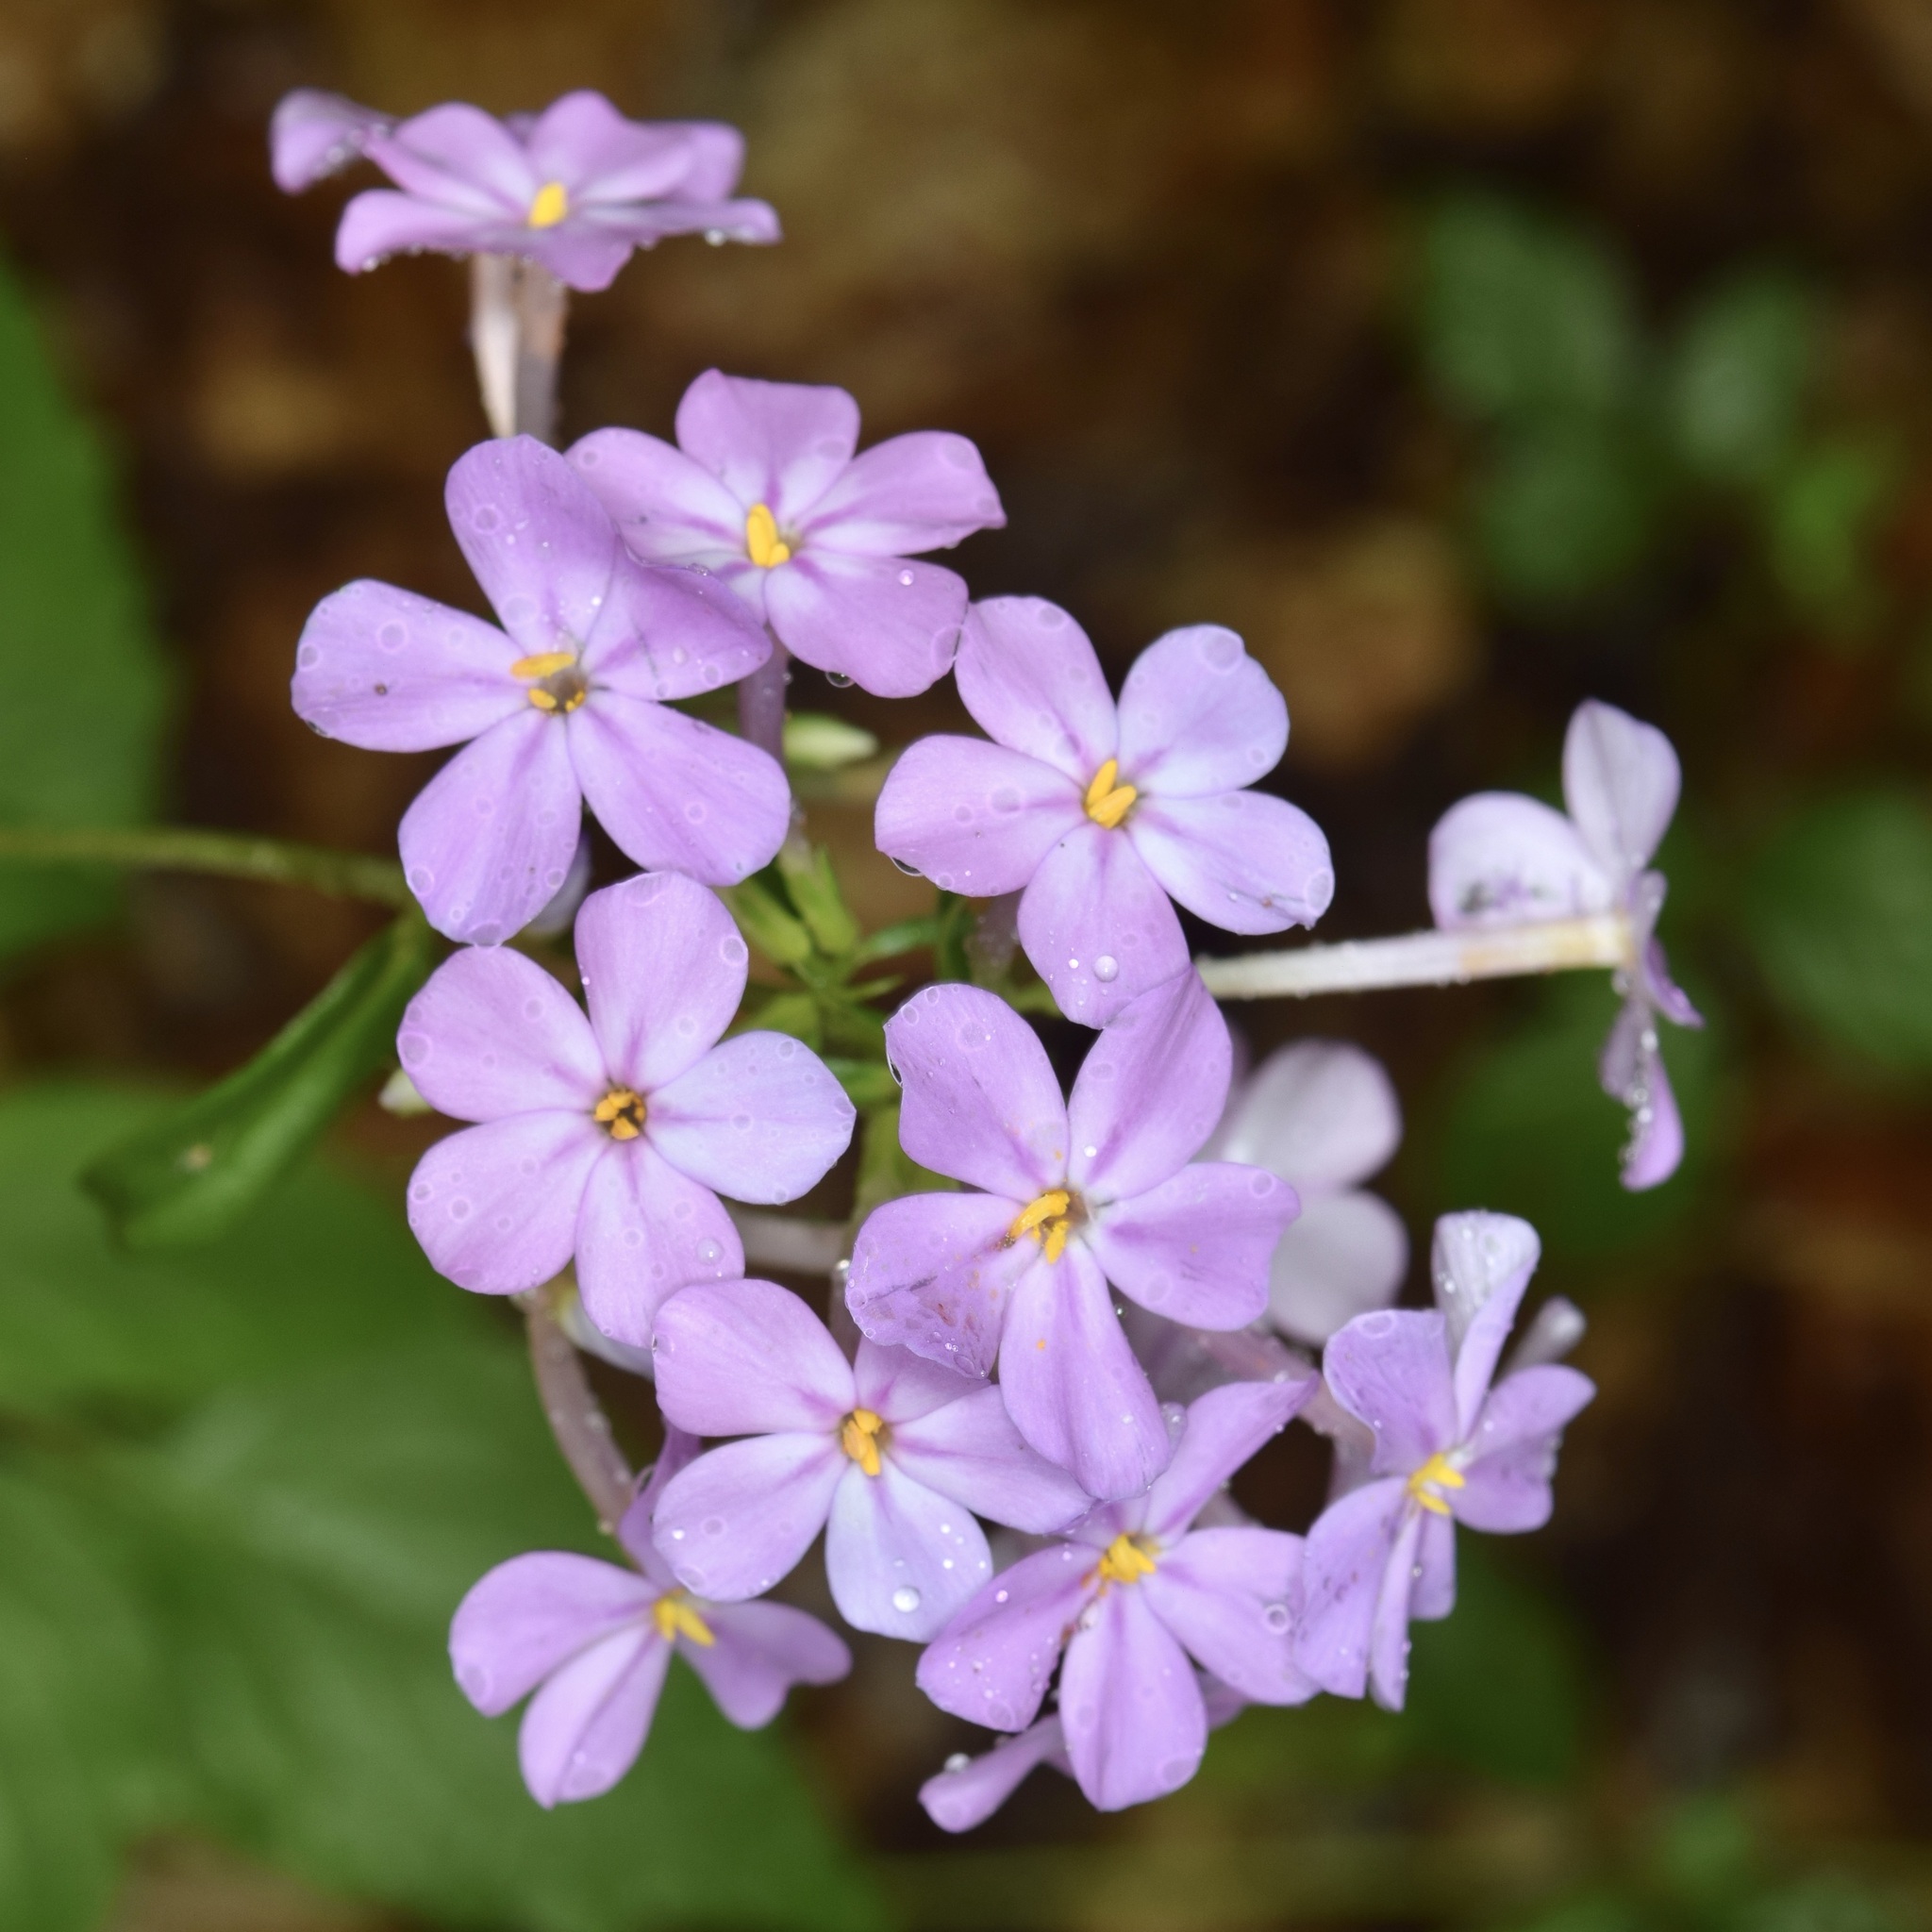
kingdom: Plantae
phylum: Tracheophyta
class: Magnoliopsida
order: Ericales
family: Polemoniaceae
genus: Phlox
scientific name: Phlox carolina
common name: Thick-leaf phlox
